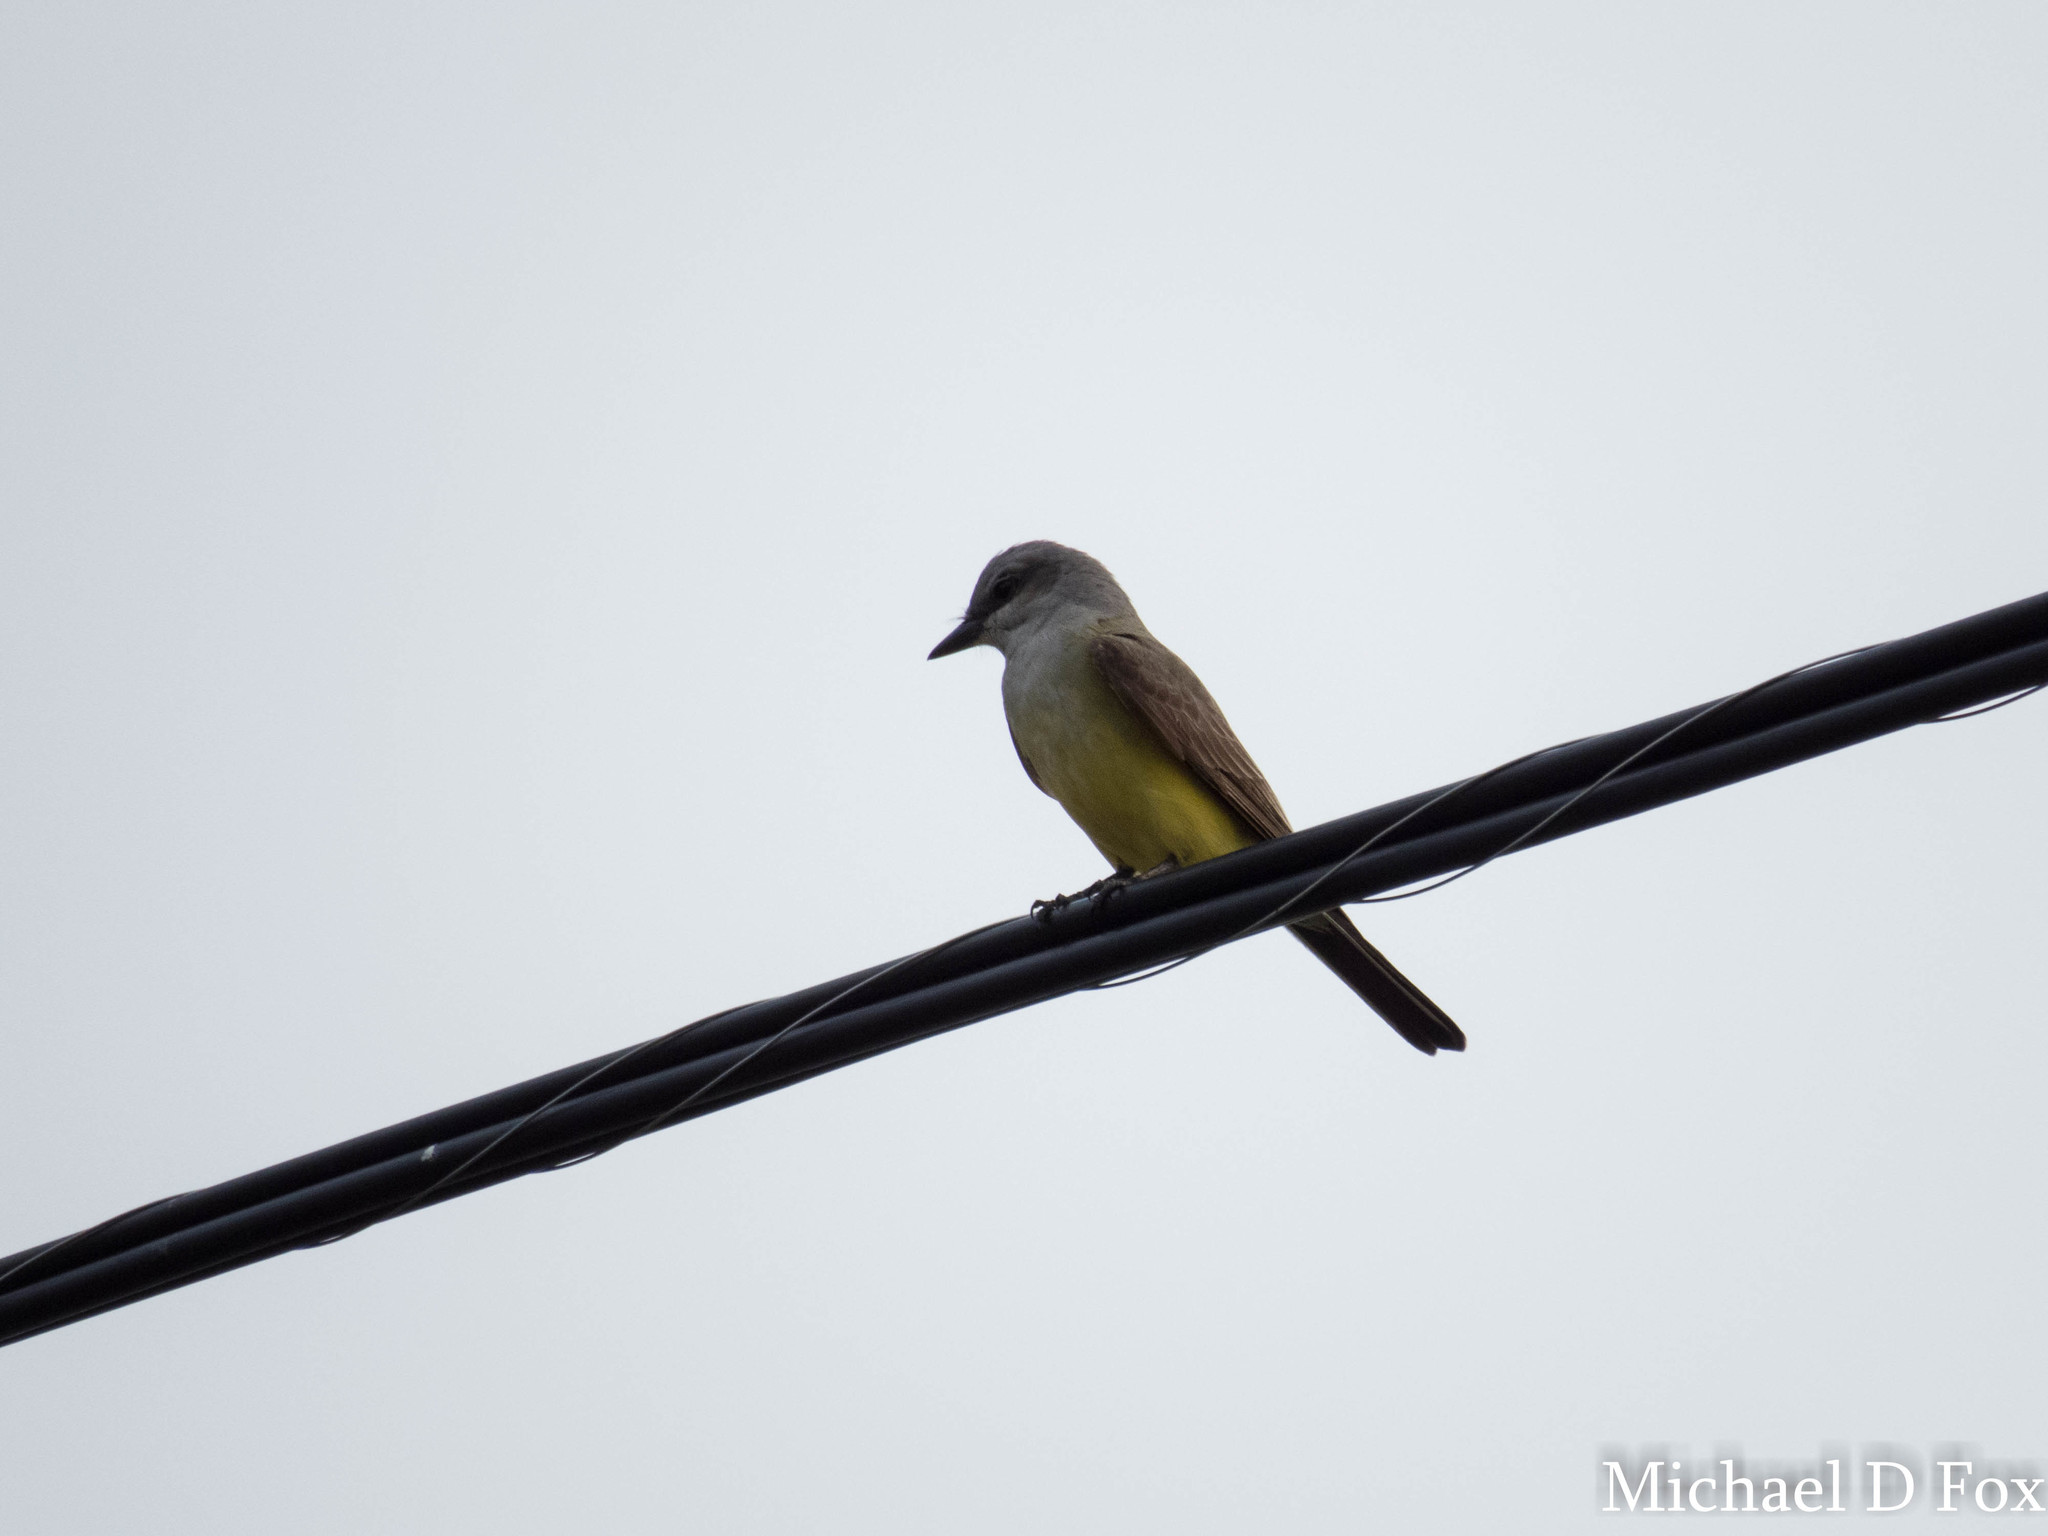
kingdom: Animalia
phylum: Chordata
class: Aves
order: Passeriformes
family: Tyrannidae
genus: Tyrannus
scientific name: Tyrannus verticalis
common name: Western kingbird
